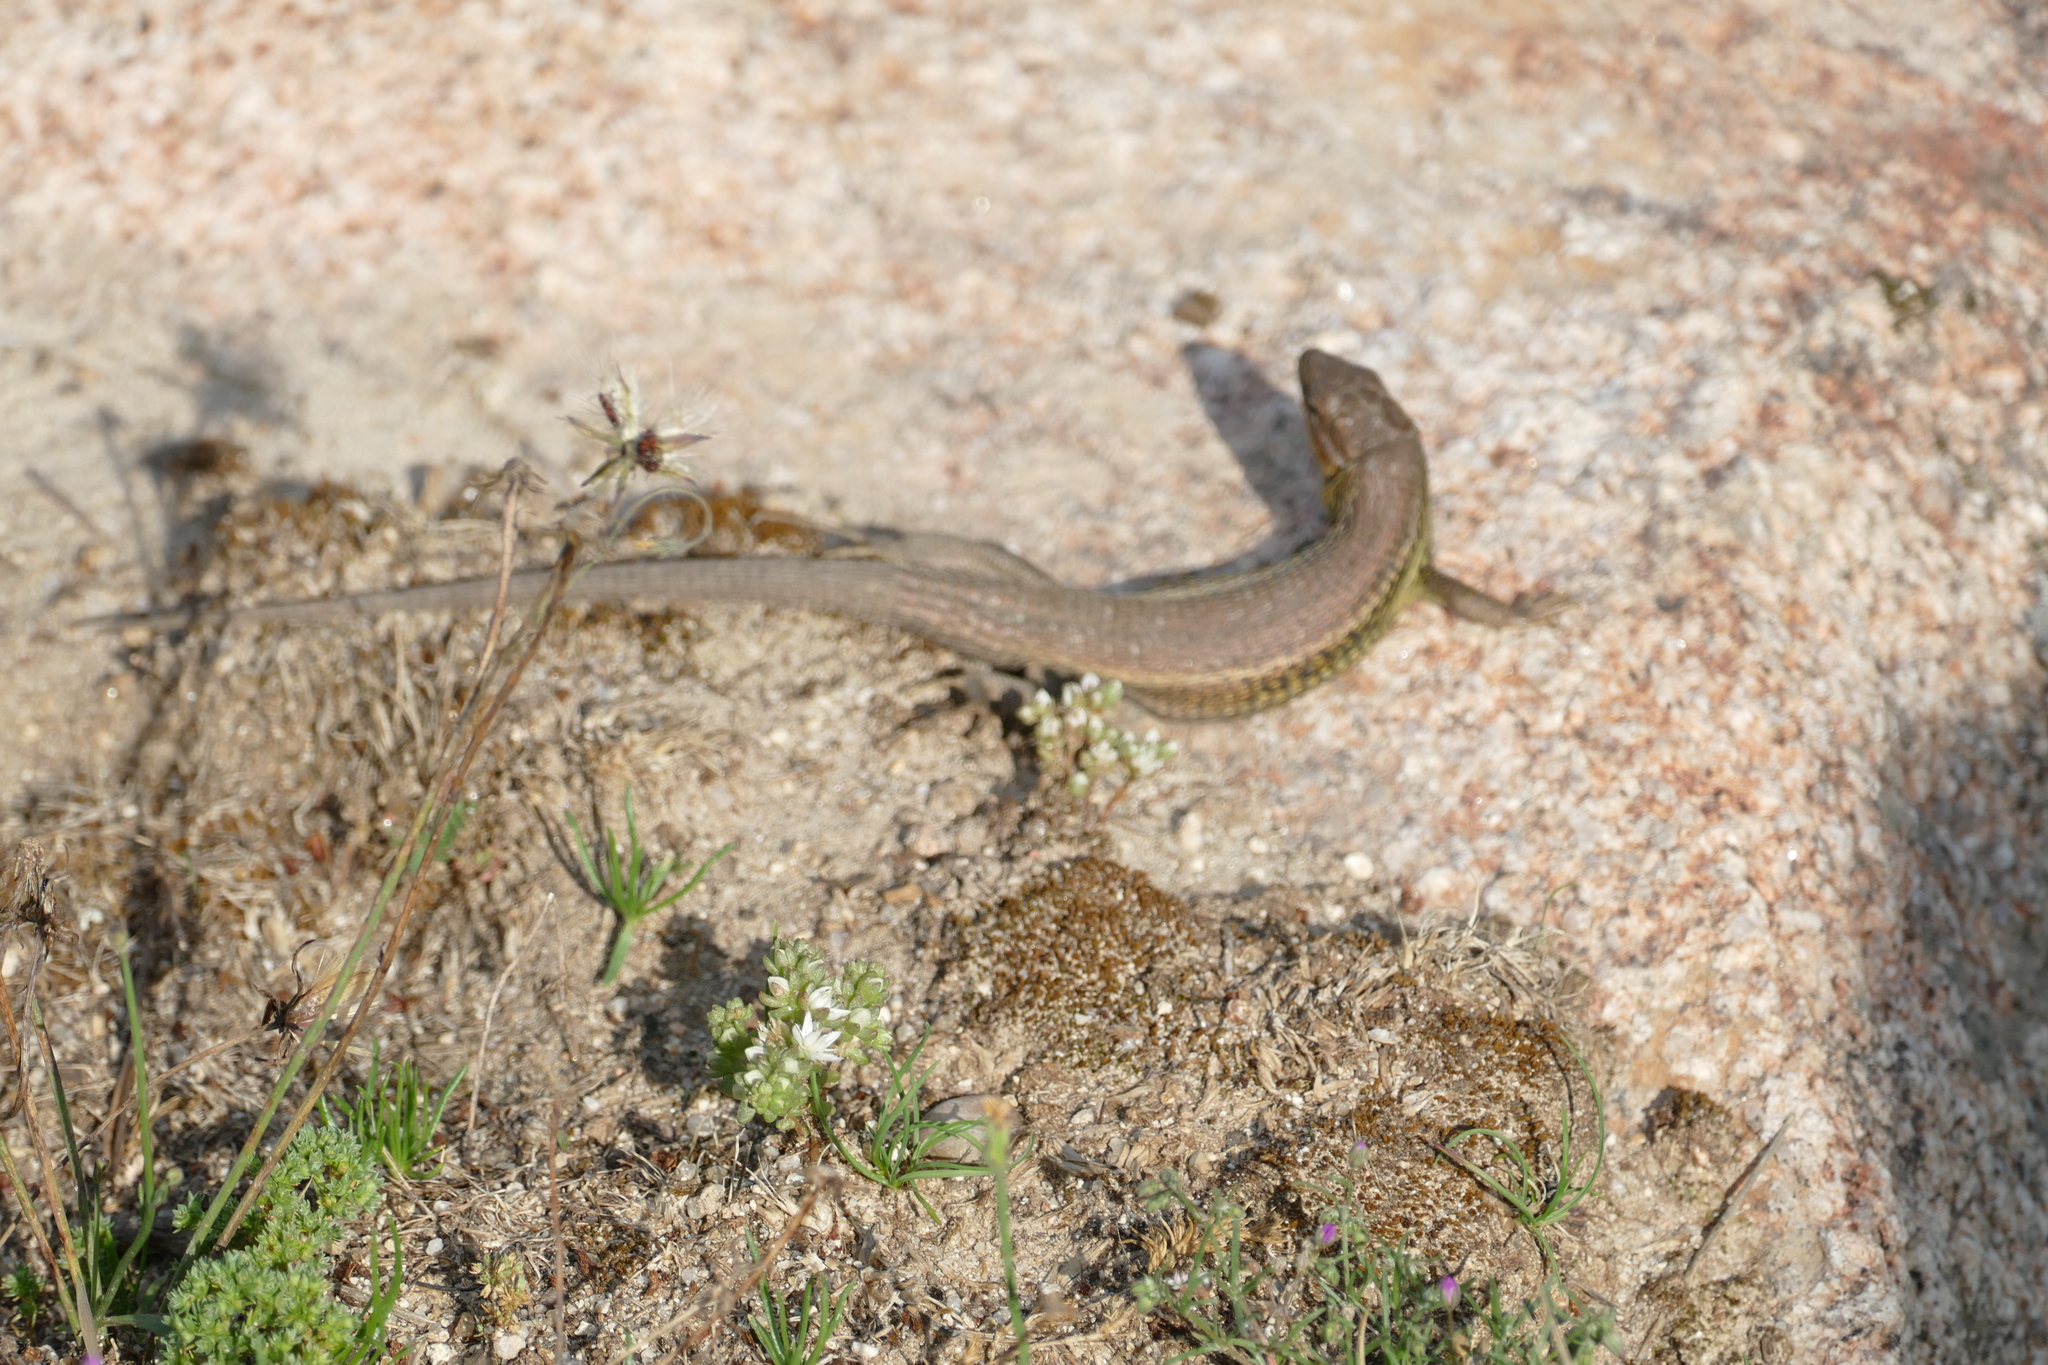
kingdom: Animalia
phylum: Chordata
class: Squamata
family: Lacertidae
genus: Psammodromus
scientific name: Psammodromus algirus
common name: Algerian psammodromus
